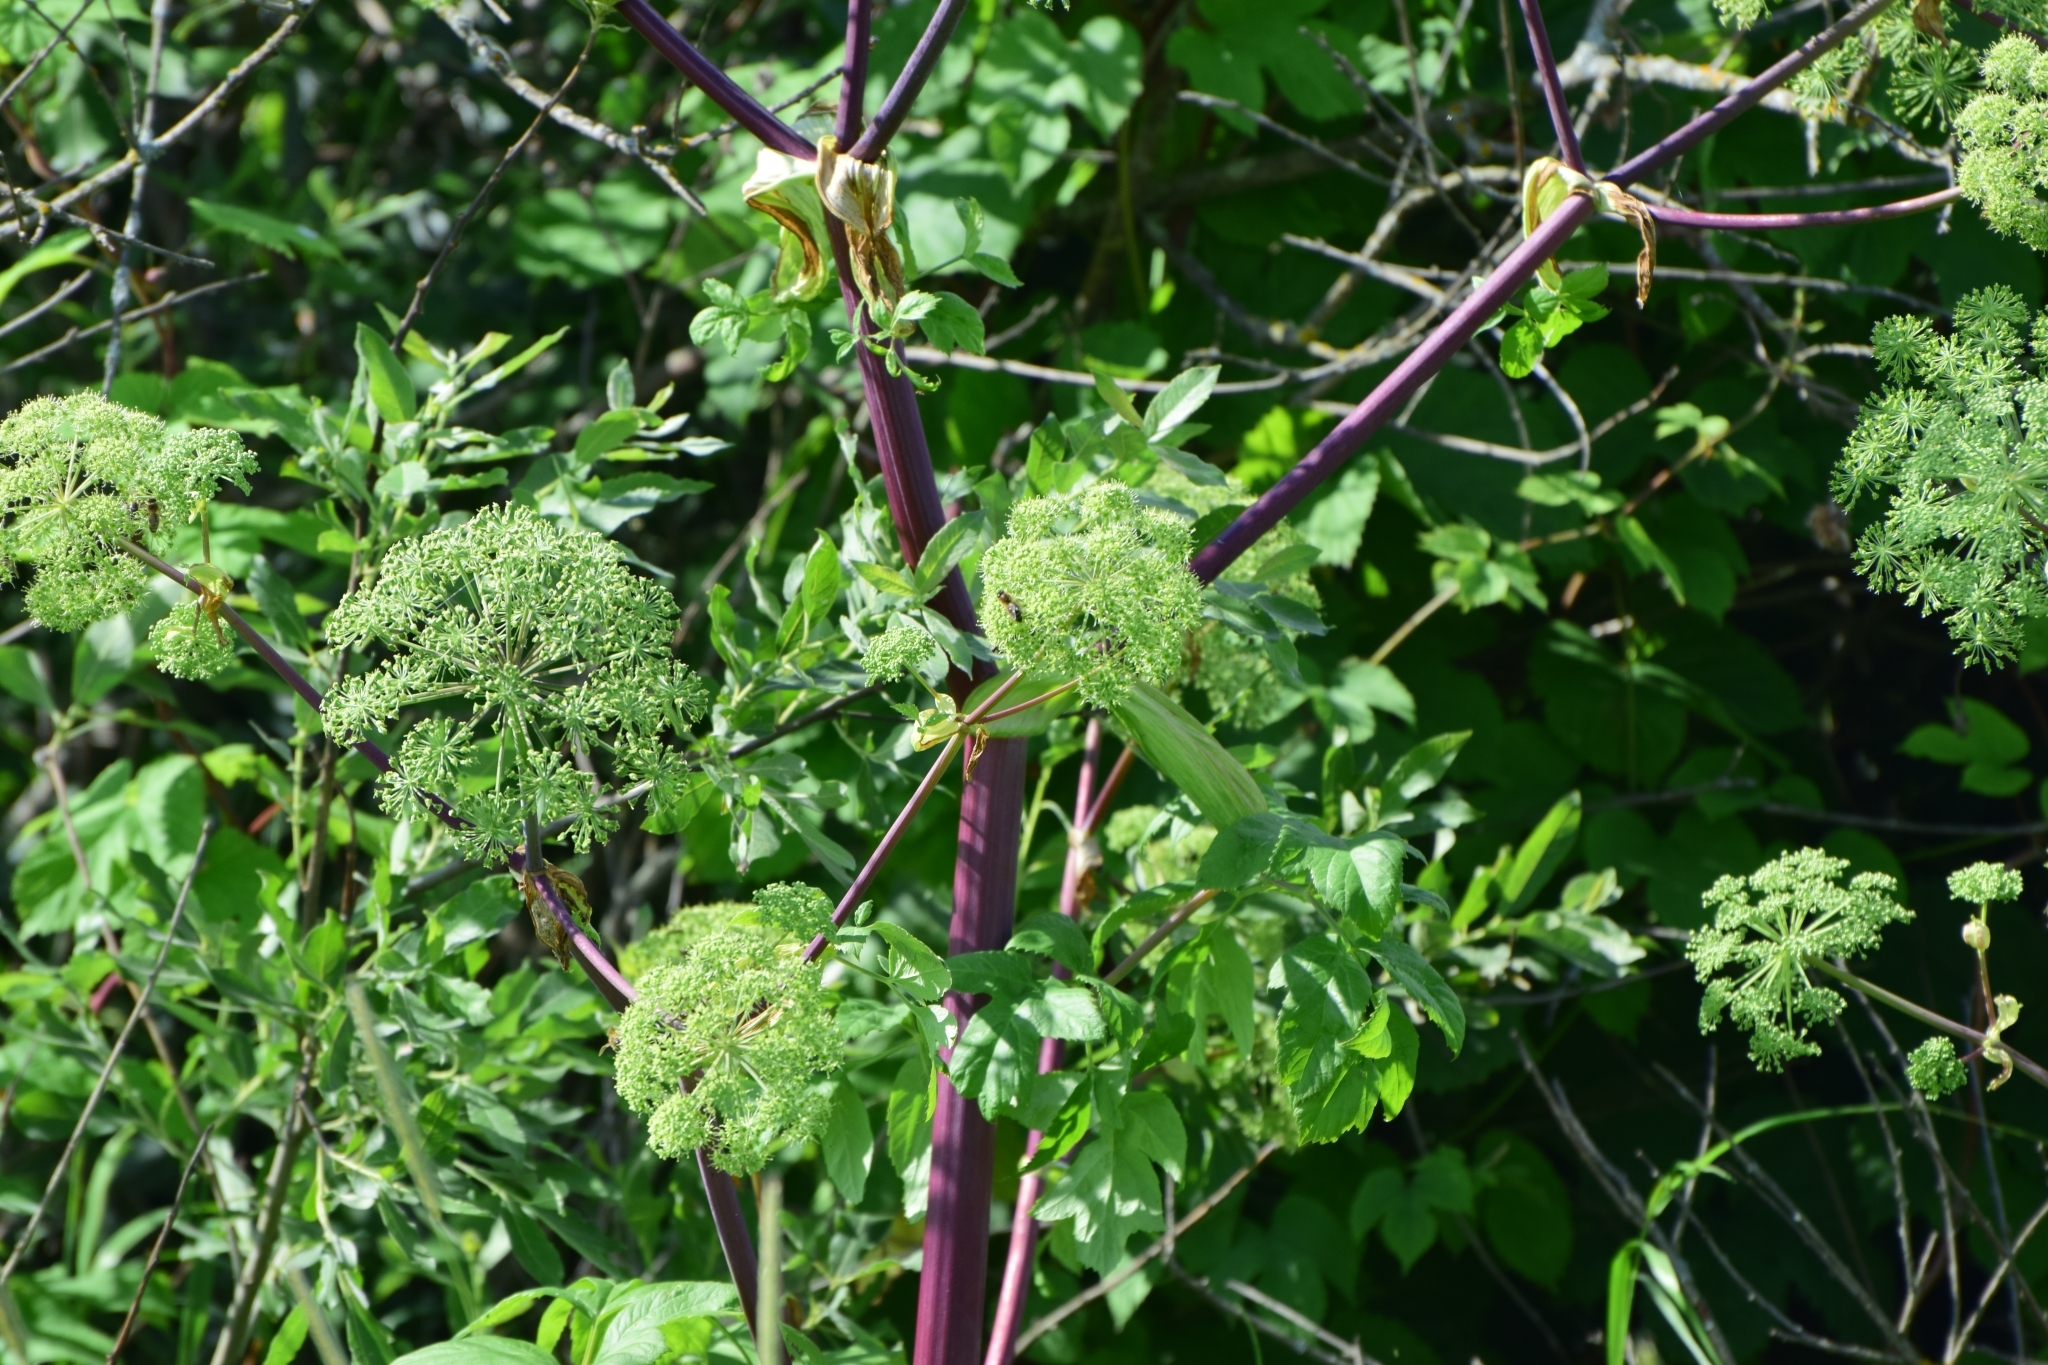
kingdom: Plantae
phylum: Tracheophyta
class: Magnoliopsida
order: Apiales
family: Apiaceae
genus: Angelica
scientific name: Angelica archangelica
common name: Garden angelica
